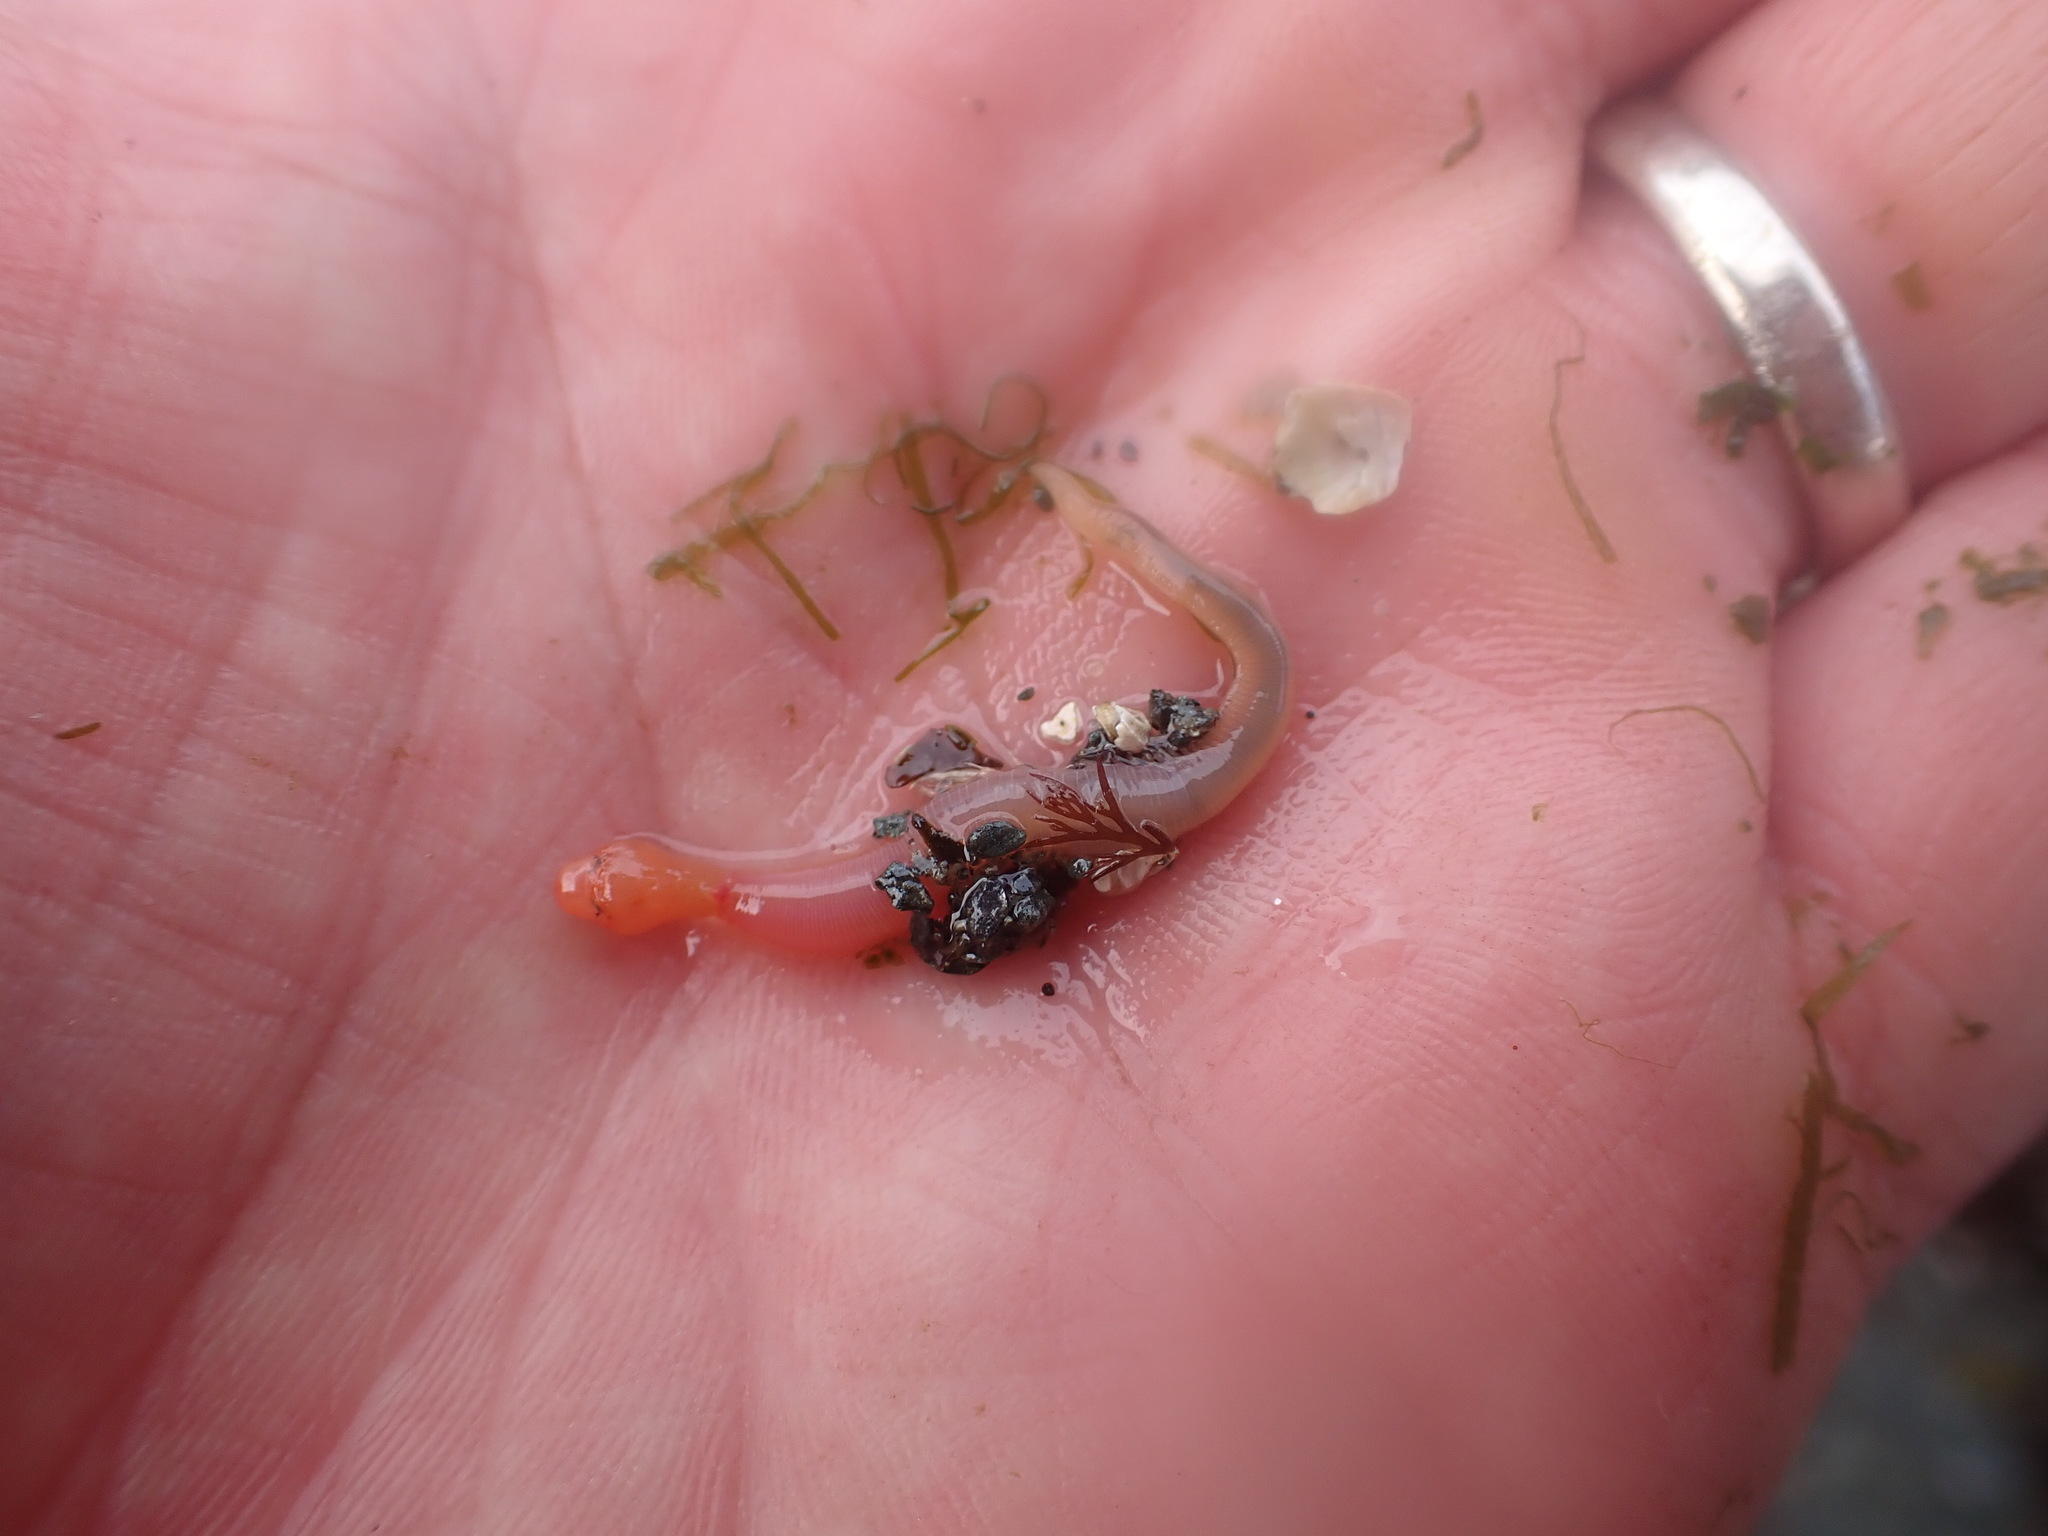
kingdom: Animalia
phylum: Annelida
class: Polychaeta
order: Phyllodocida
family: Glyceridae
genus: Hemipodia
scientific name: Hemipodia simplex
